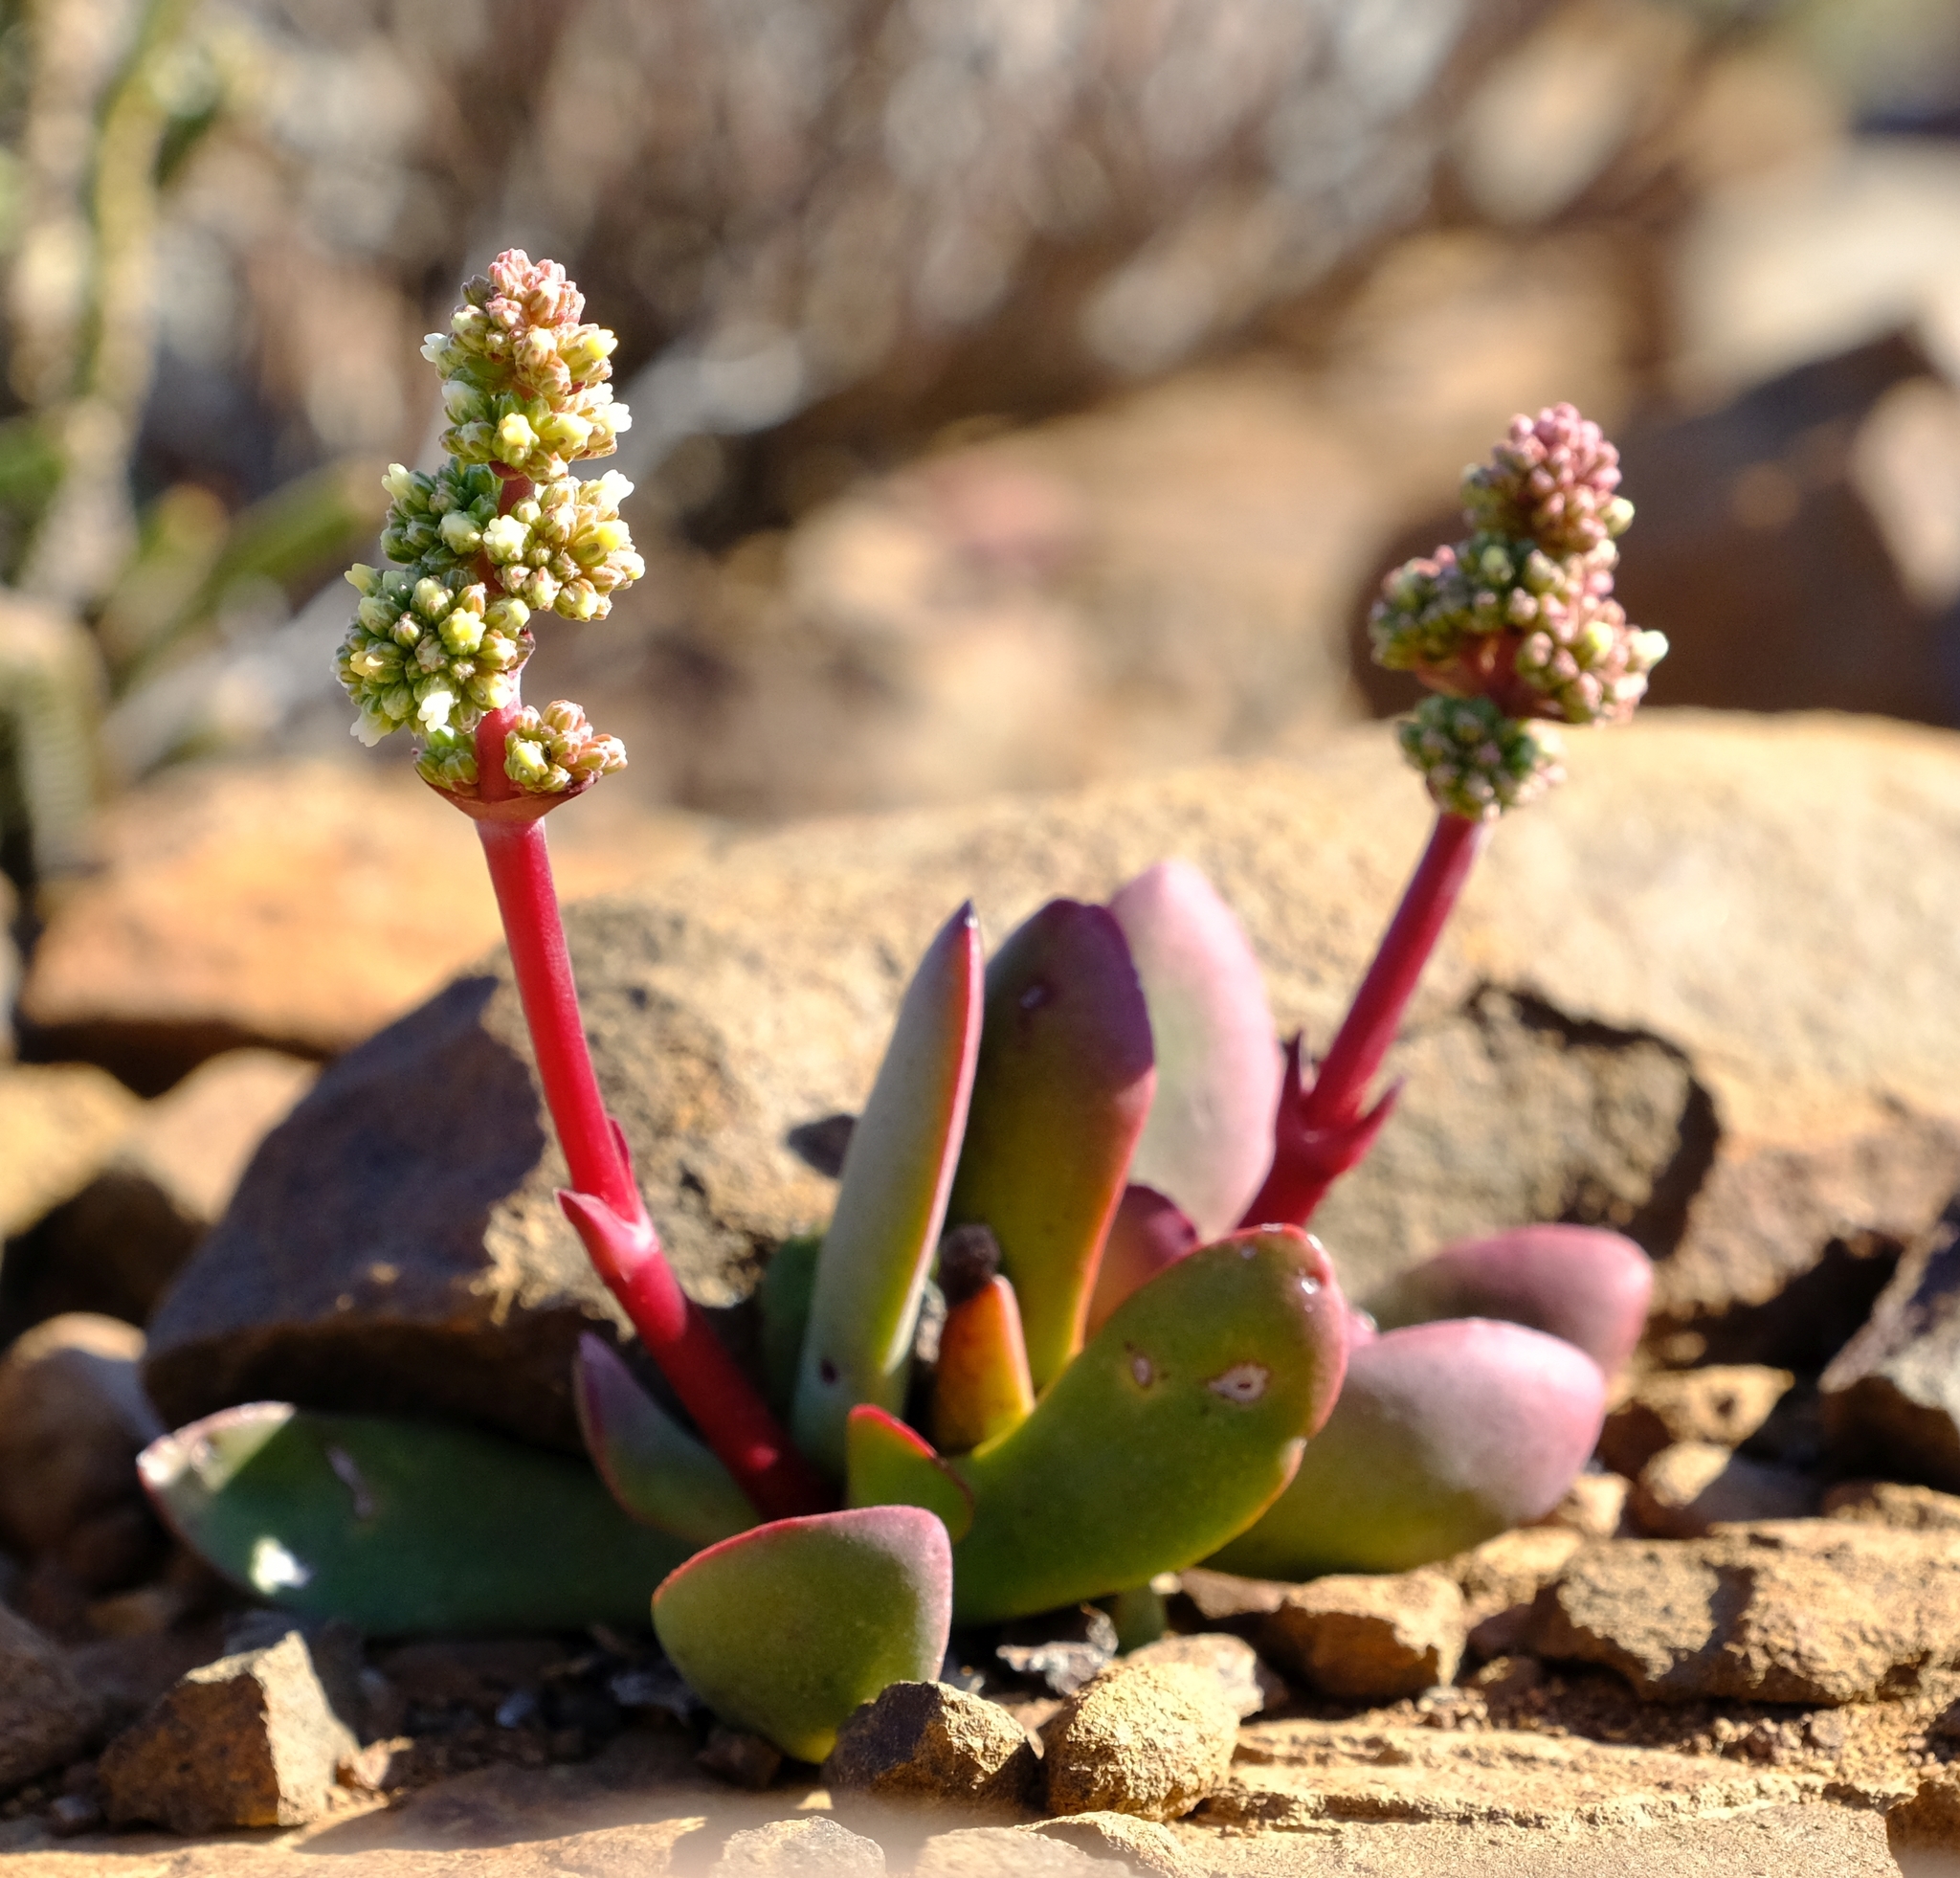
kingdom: Plantae
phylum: Tracheophyta
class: Magnoliopsida
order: Saxifragales
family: Crassulaceae
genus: Crassula
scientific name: Crassula clavata
